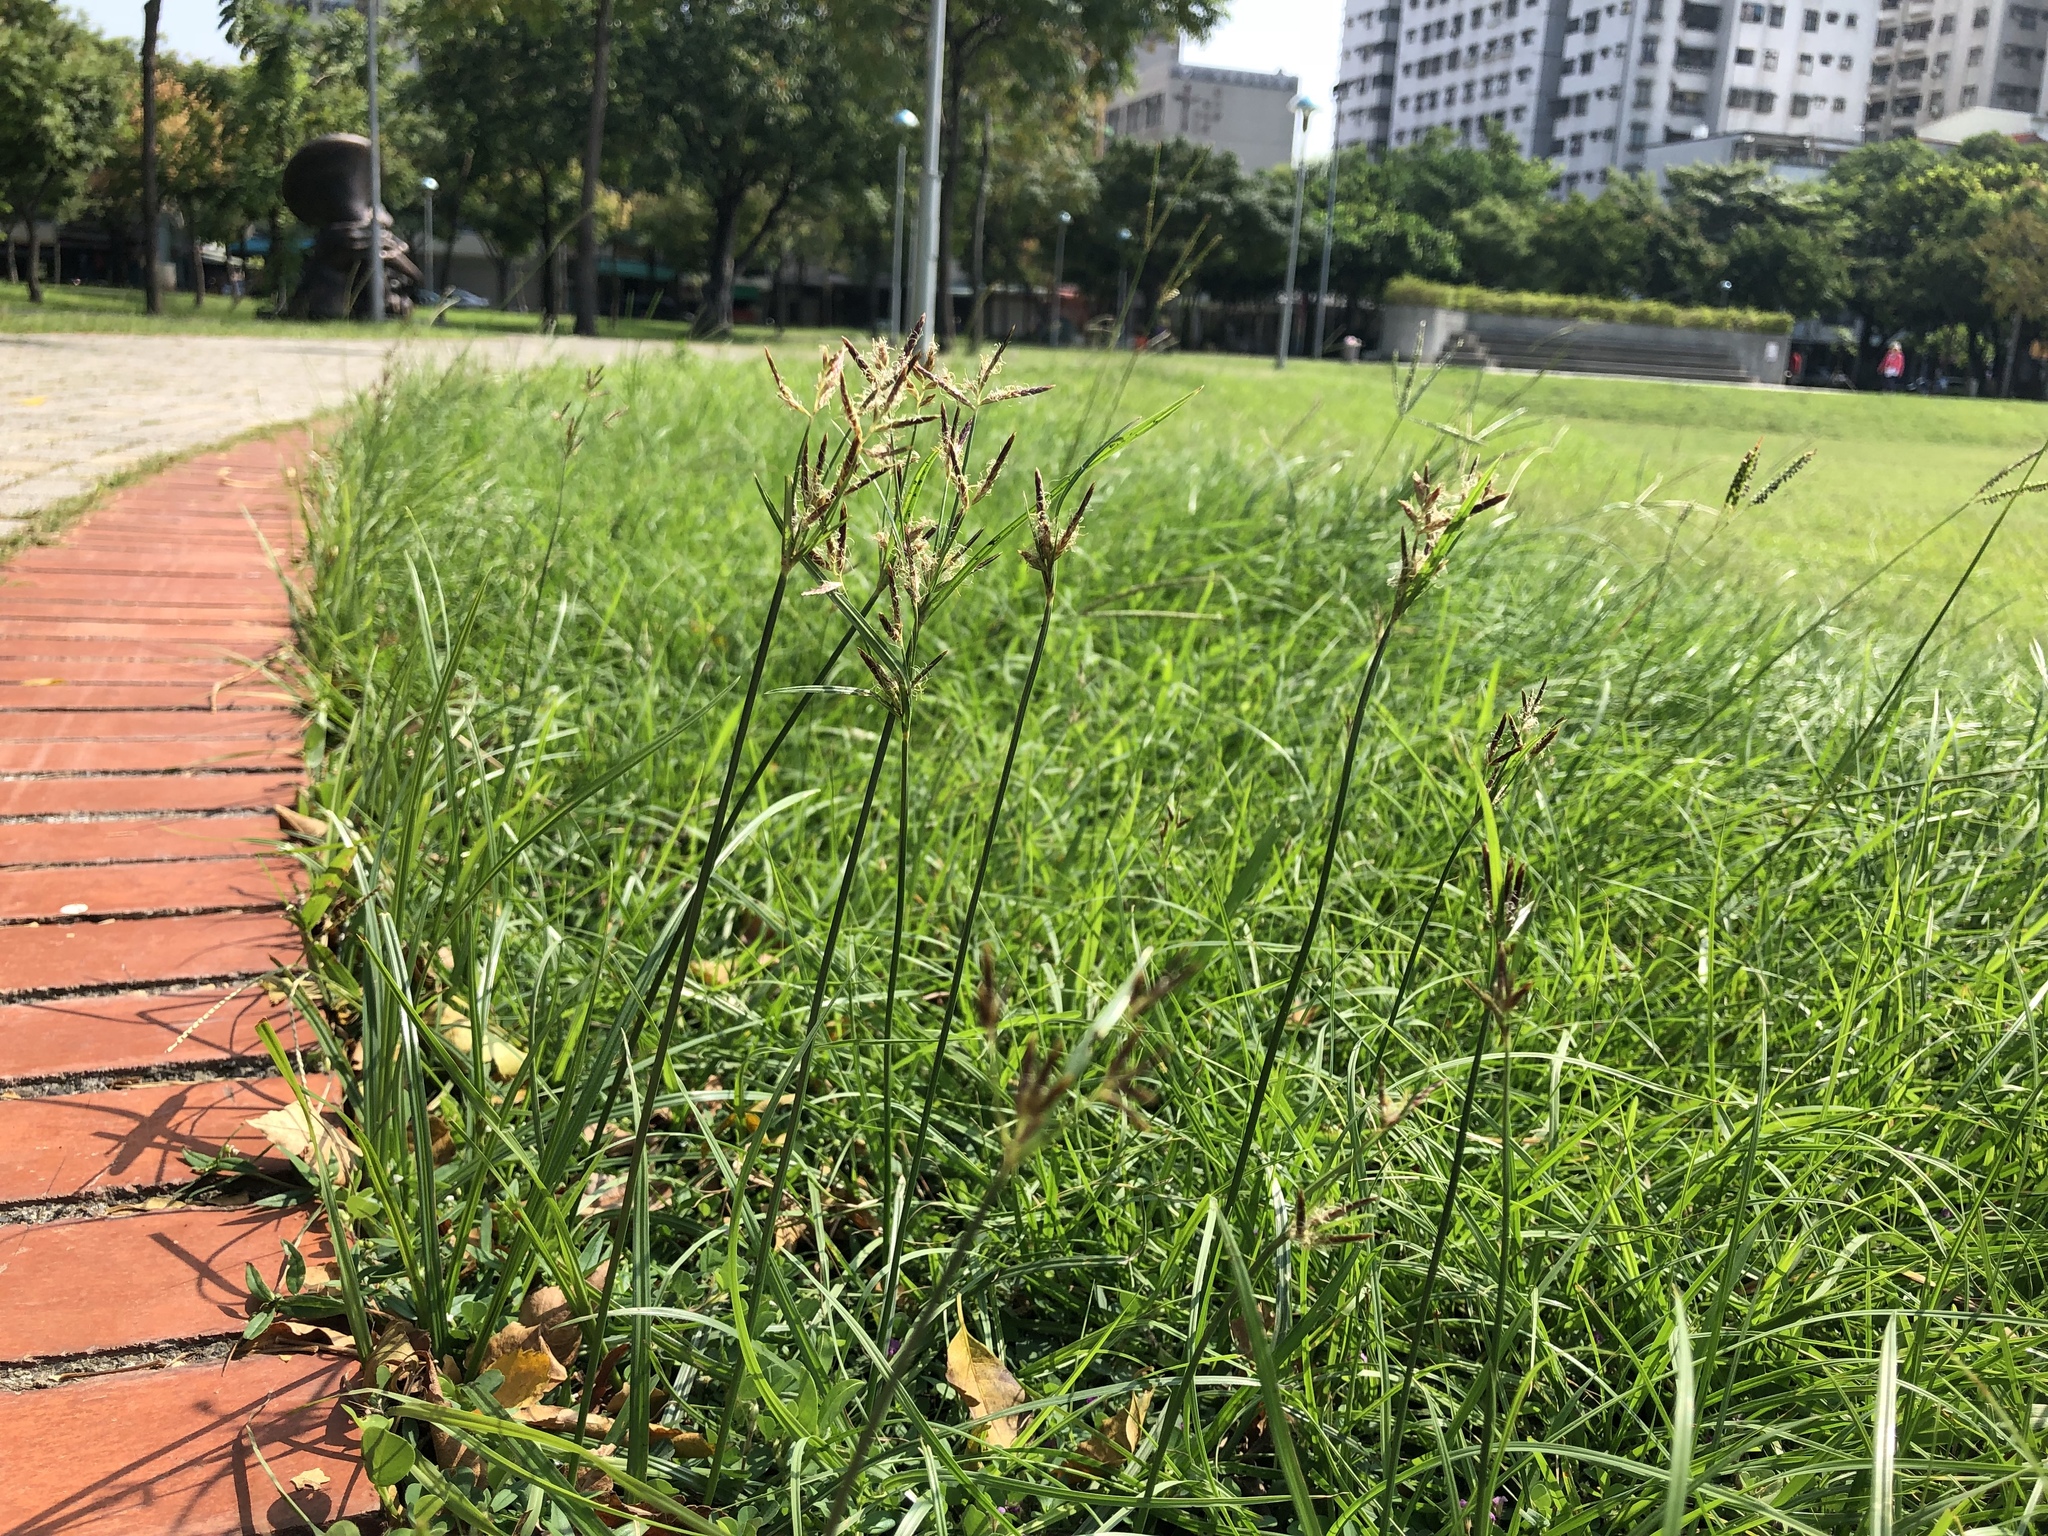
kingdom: Plantae
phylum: Tracheophyta
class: Liliopsida
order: Poales
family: Cyperaceae
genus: Cyperus
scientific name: Cyperus rotundus
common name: Nutgrass
